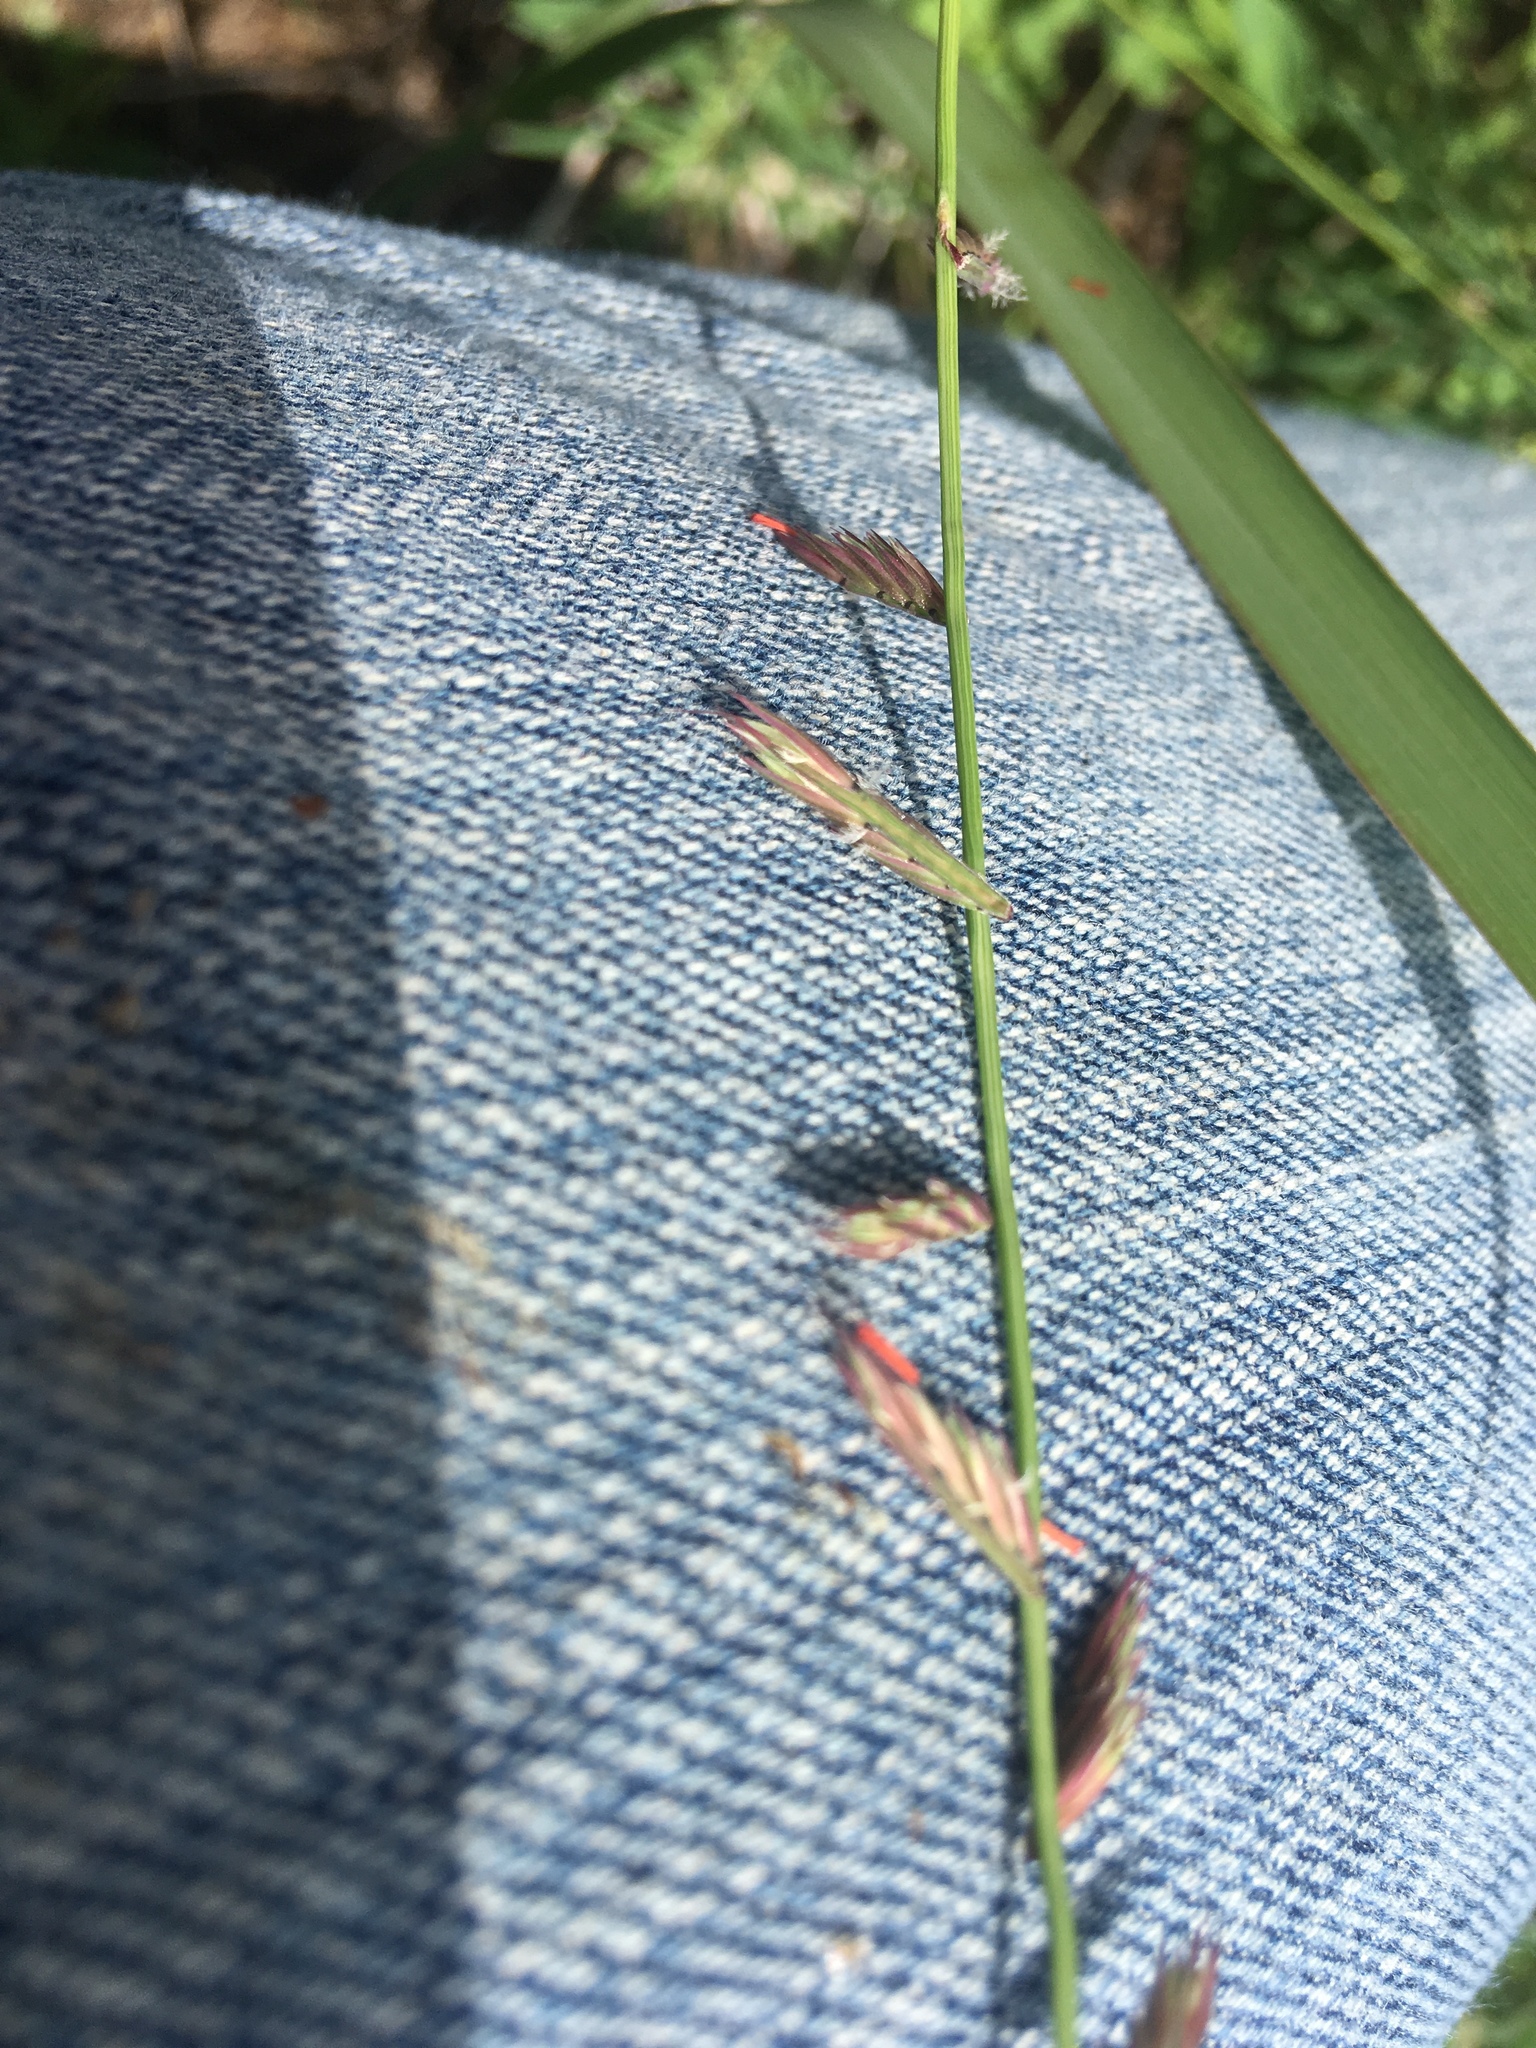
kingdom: Plantae
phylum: Tracheophyta
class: Liliopsida
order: Poales
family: Poaceae
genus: Bouteloua
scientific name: Bouteloua curtipendula
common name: Side-oats grama
